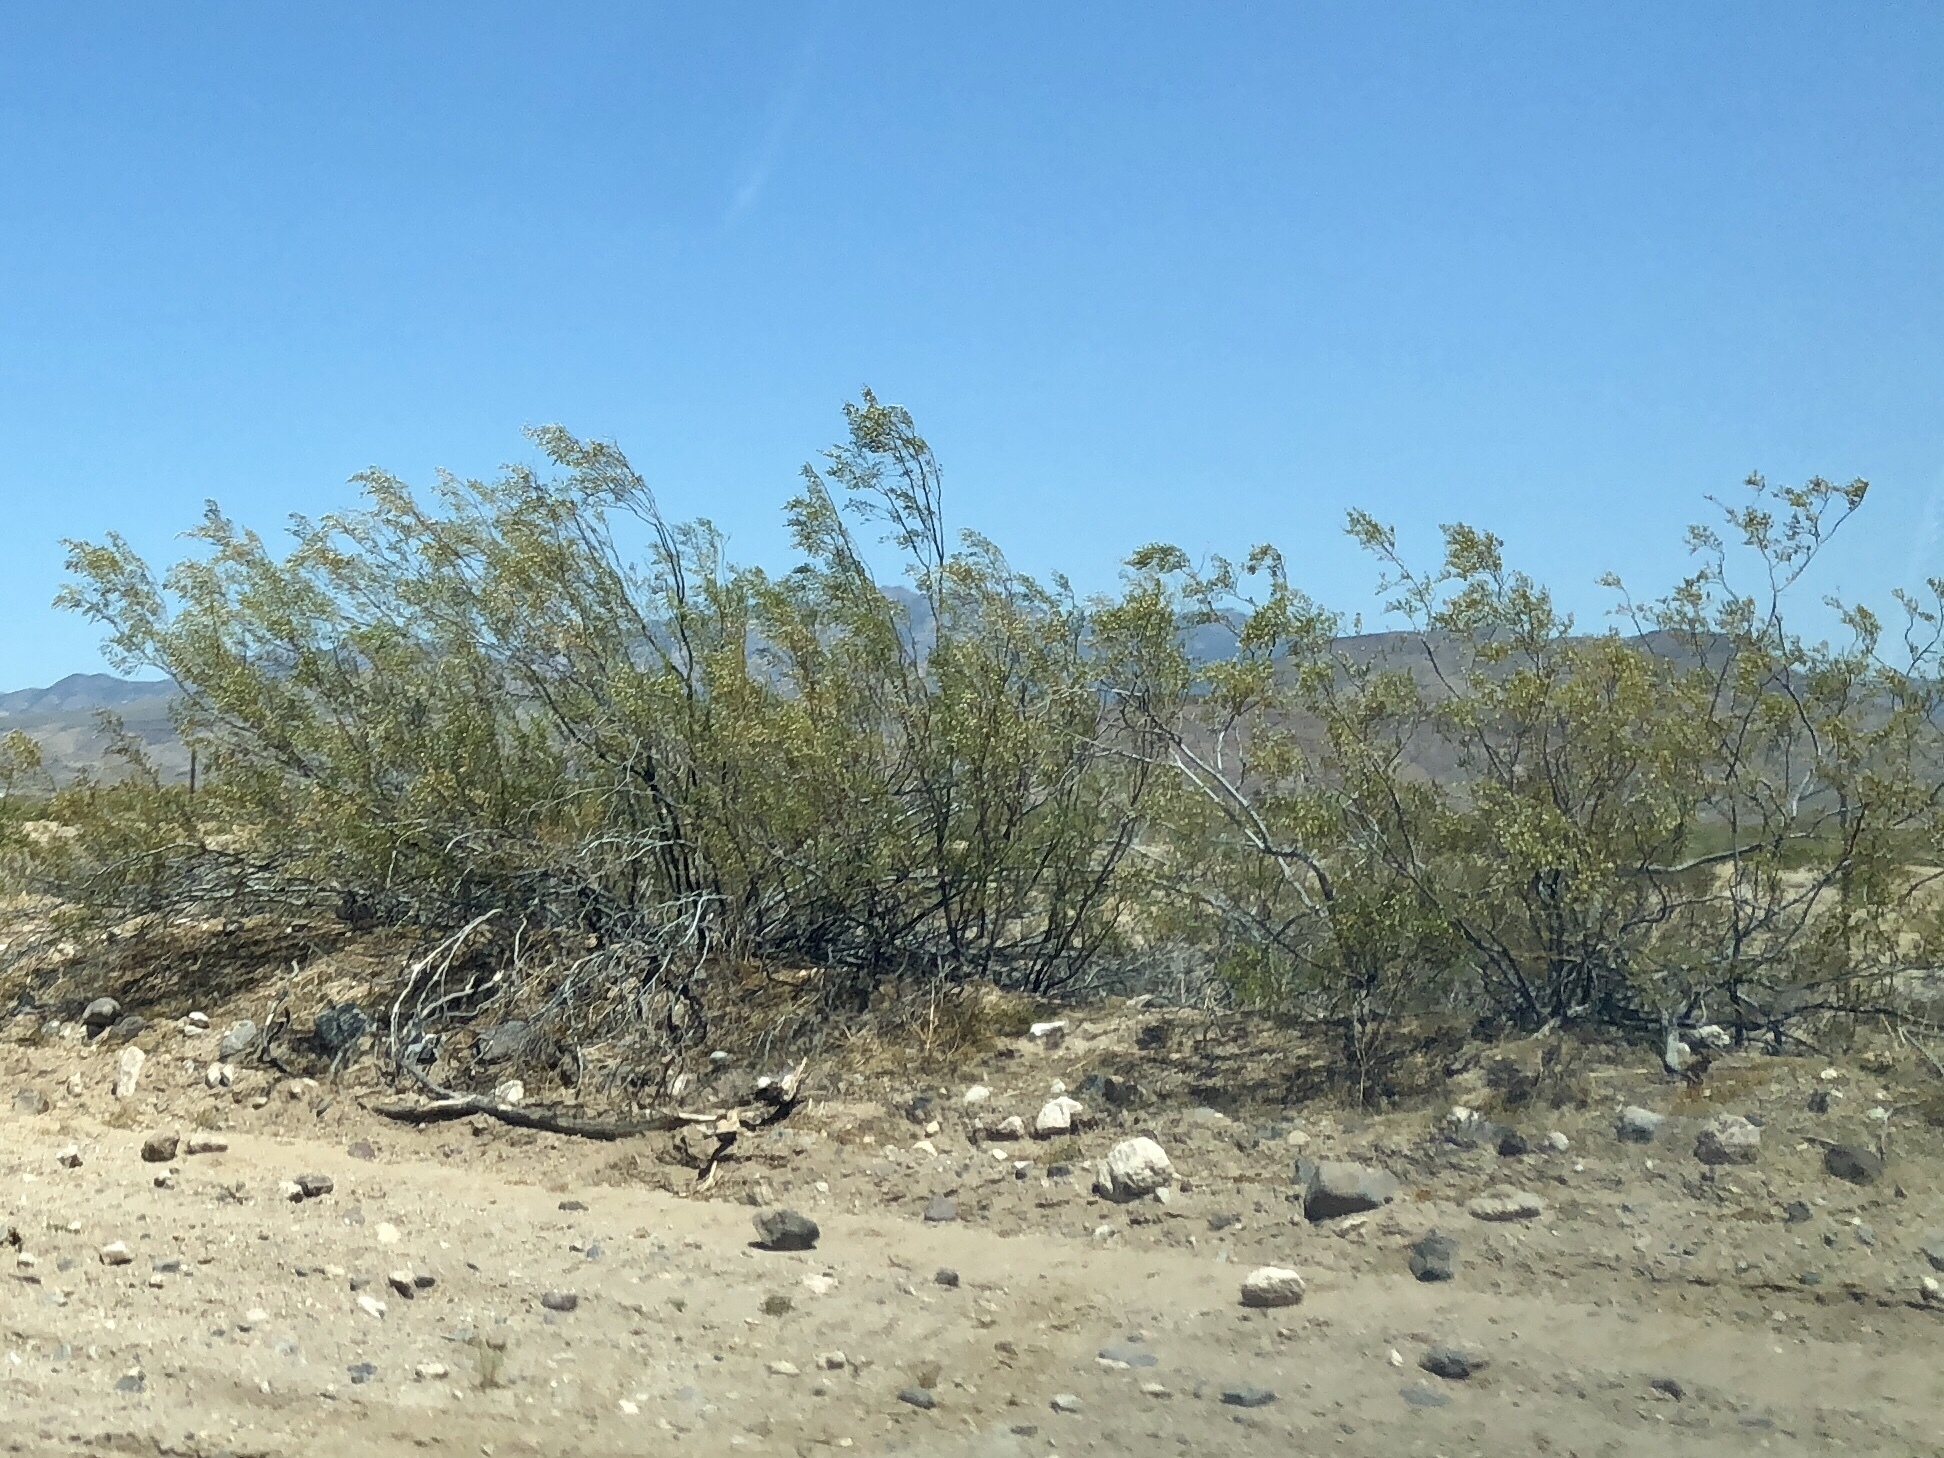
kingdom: Plantae
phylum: Tracheophyta
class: Magnoliopsida
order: Zygophyllales
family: Zygophyllaceae
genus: Larrea
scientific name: Larrea tridentata
